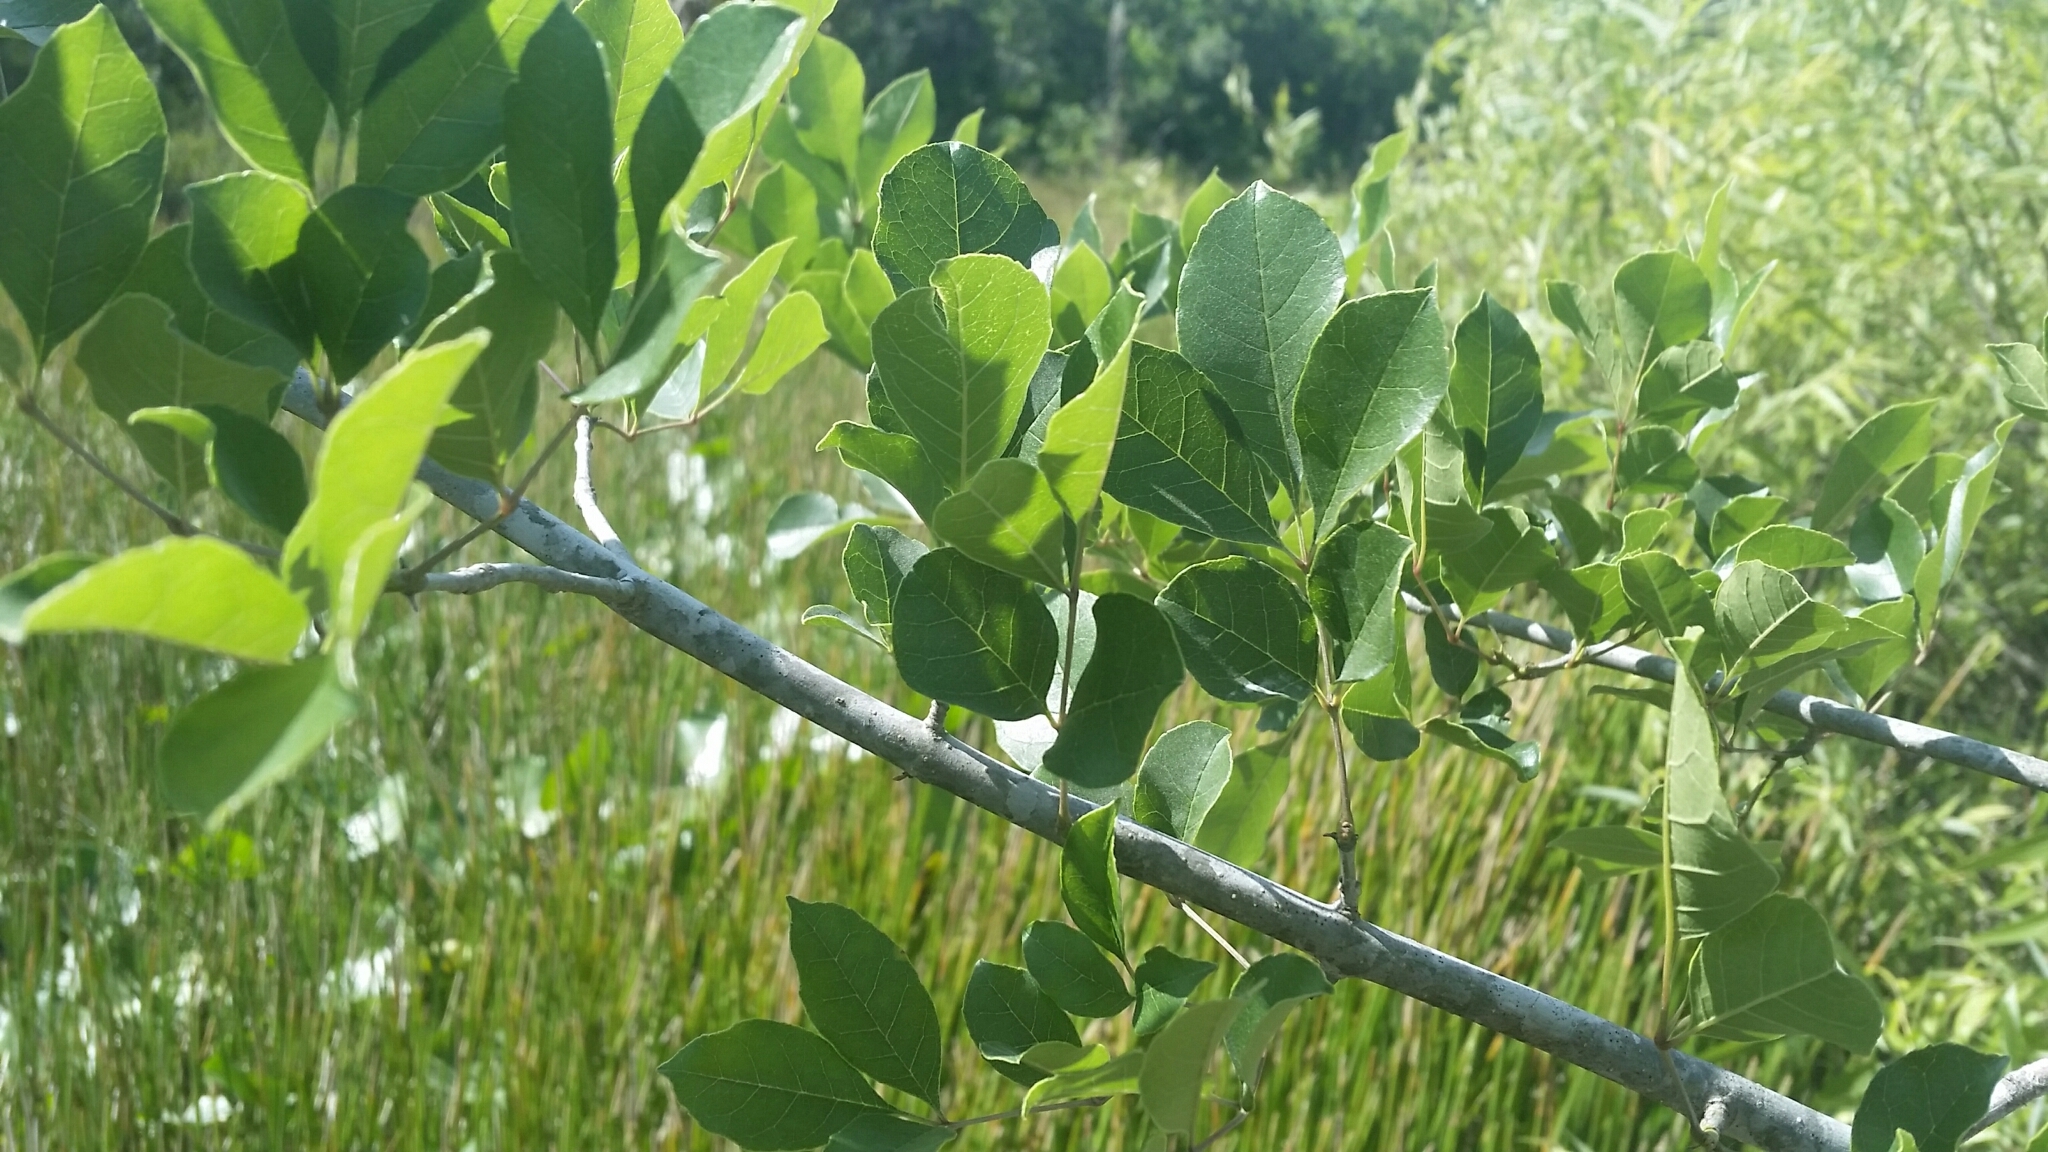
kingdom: Plantae
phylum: Tracheophyta
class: Magnoliopsida
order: Lamiales
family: Oleaceae
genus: Fraxinus
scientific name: Fraxinus caroliniana
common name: Carolina ash
